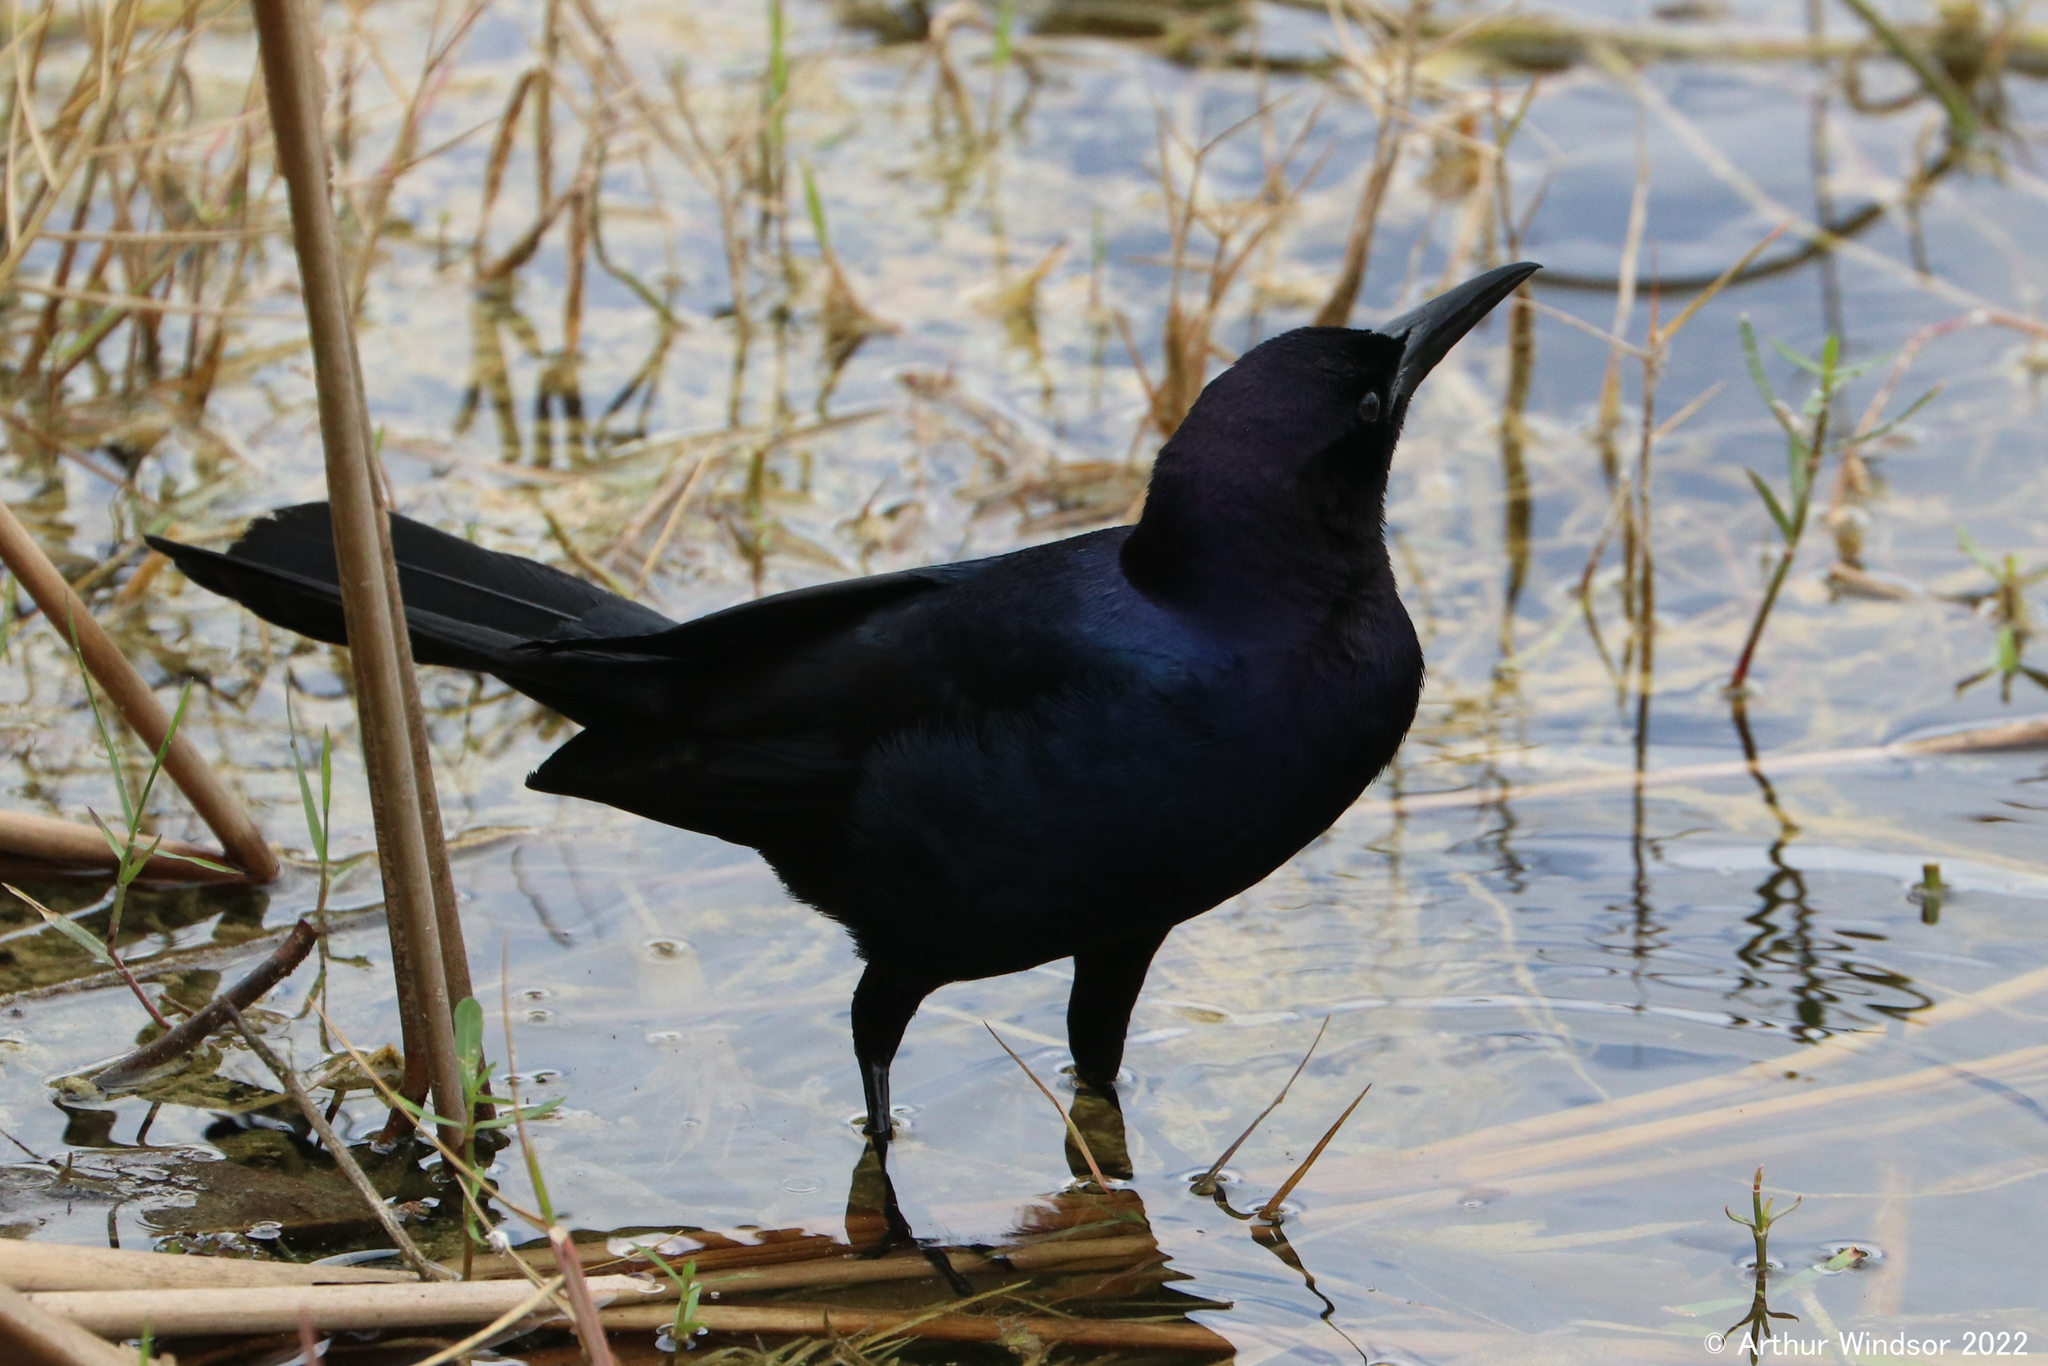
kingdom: Animalia
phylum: Chordata
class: Aves
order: Passeriformes
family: Icteridae
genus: Quiscalus
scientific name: Quiscalus major
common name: Boat-tailed grackle
